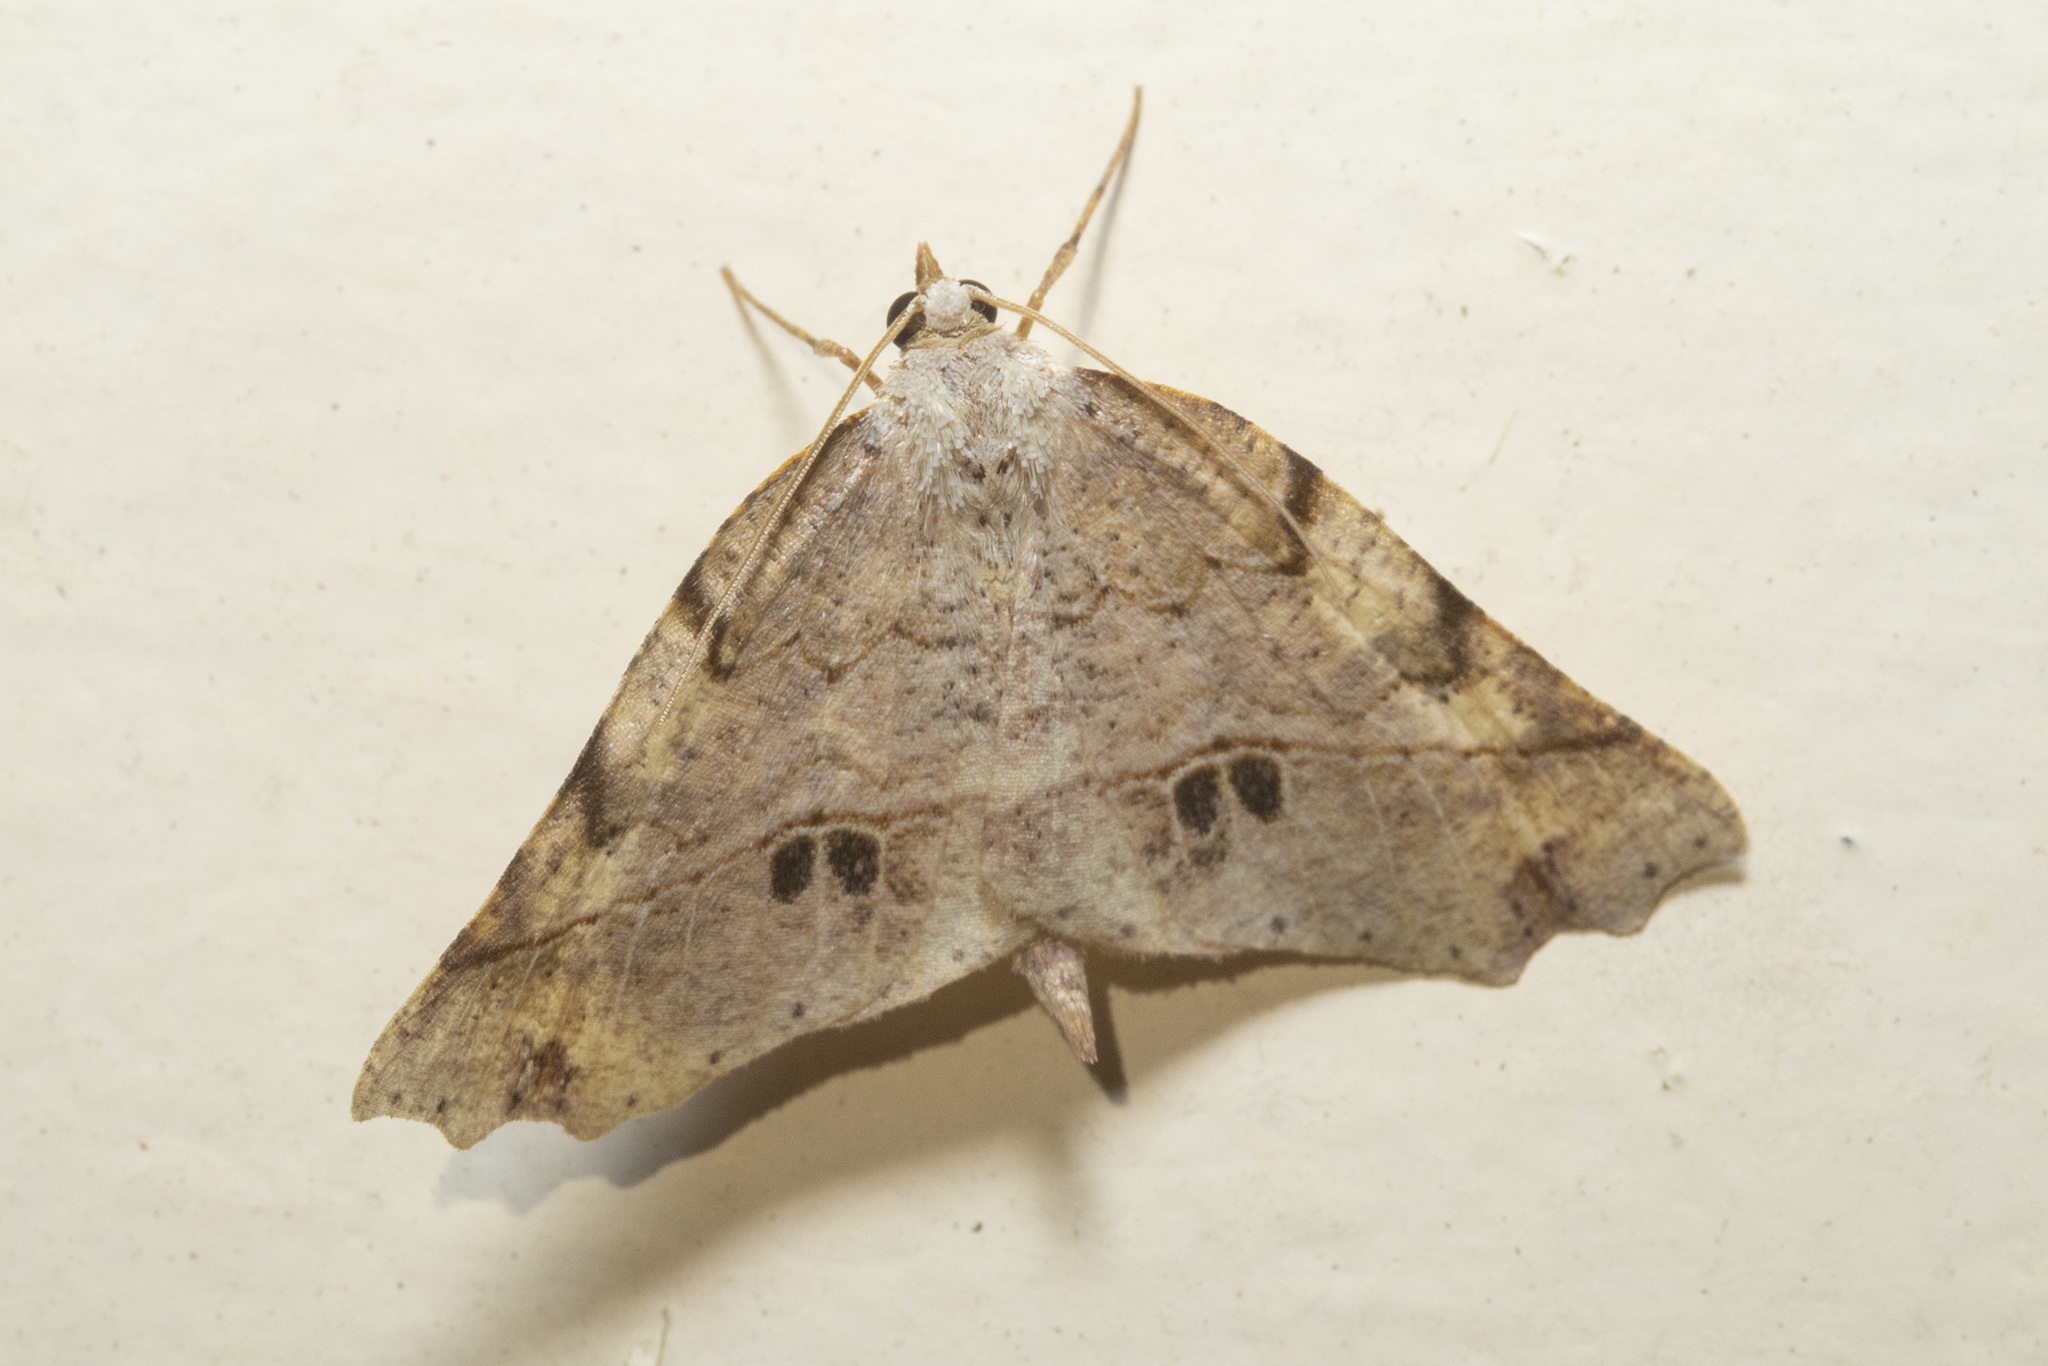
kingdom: Animalia
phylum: Arthropoda
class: Insecta
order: Lepidoptera
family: Geometridae
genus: Ischalis
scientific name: Ischalis gallaria
